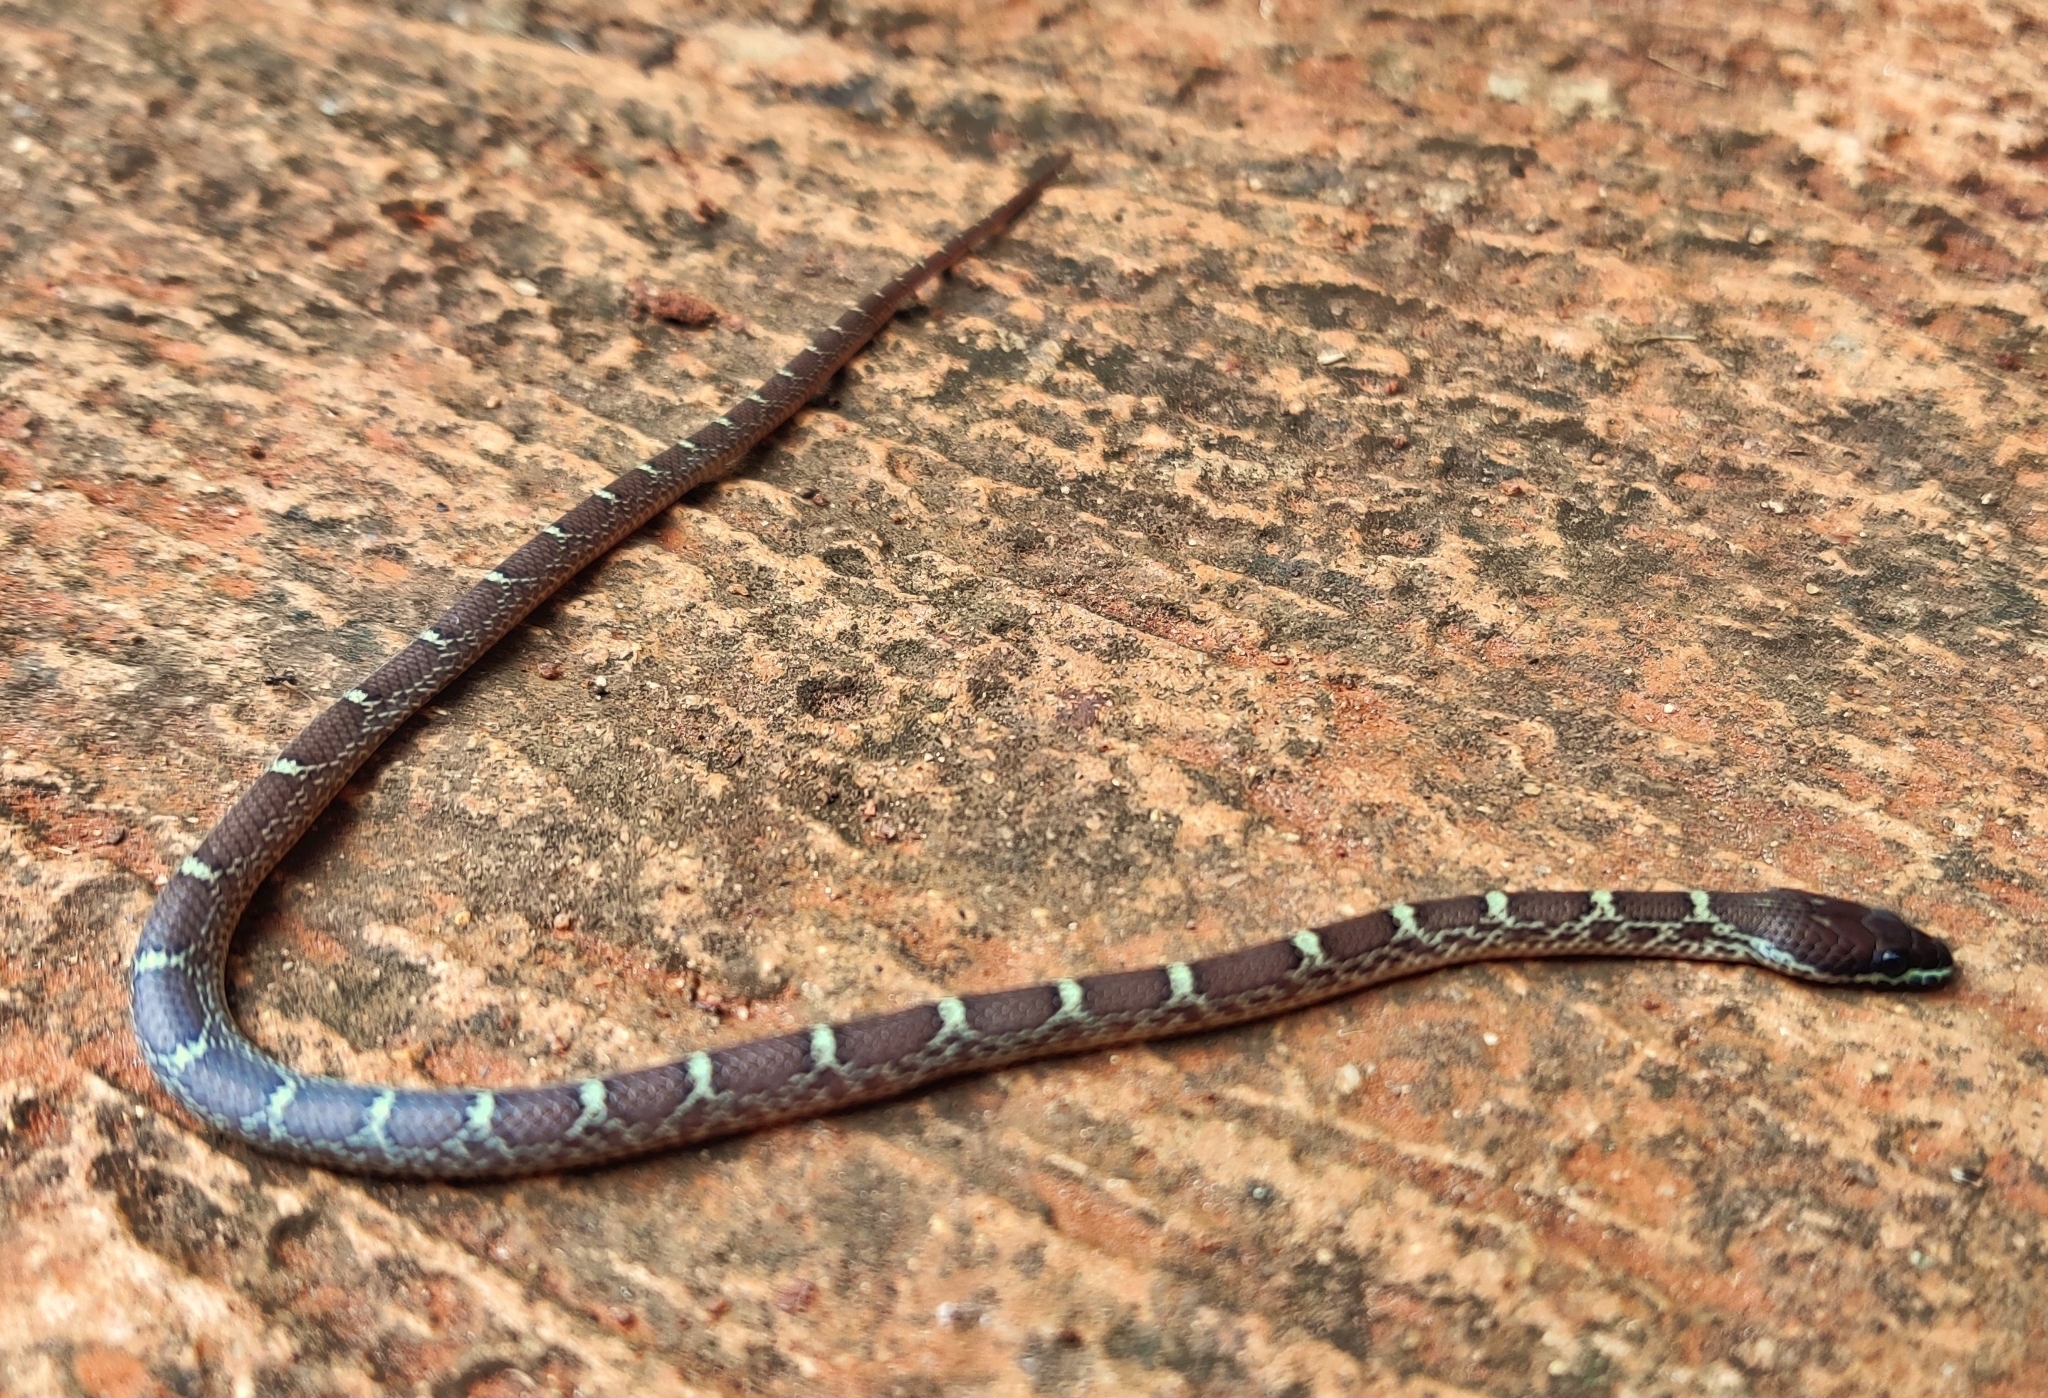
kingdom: Animalia
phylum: Chordata
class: Squamata
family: Colubridae
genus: Lycodon
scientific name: Lycodon fasciolatus
